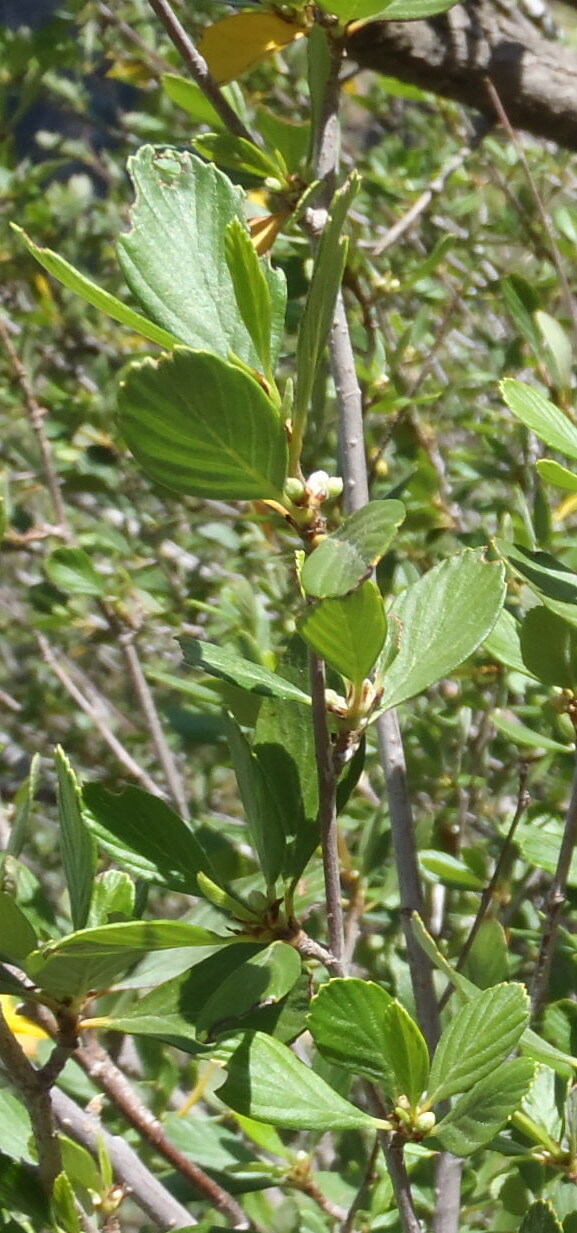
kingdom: Plantae
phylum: Tracheophyta
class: Magnoliopsida
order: Rosales
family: Rosaceae
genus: Cercocarpus
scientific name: Cercocarpus montanus
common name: Alder-leaf cercocarpus
